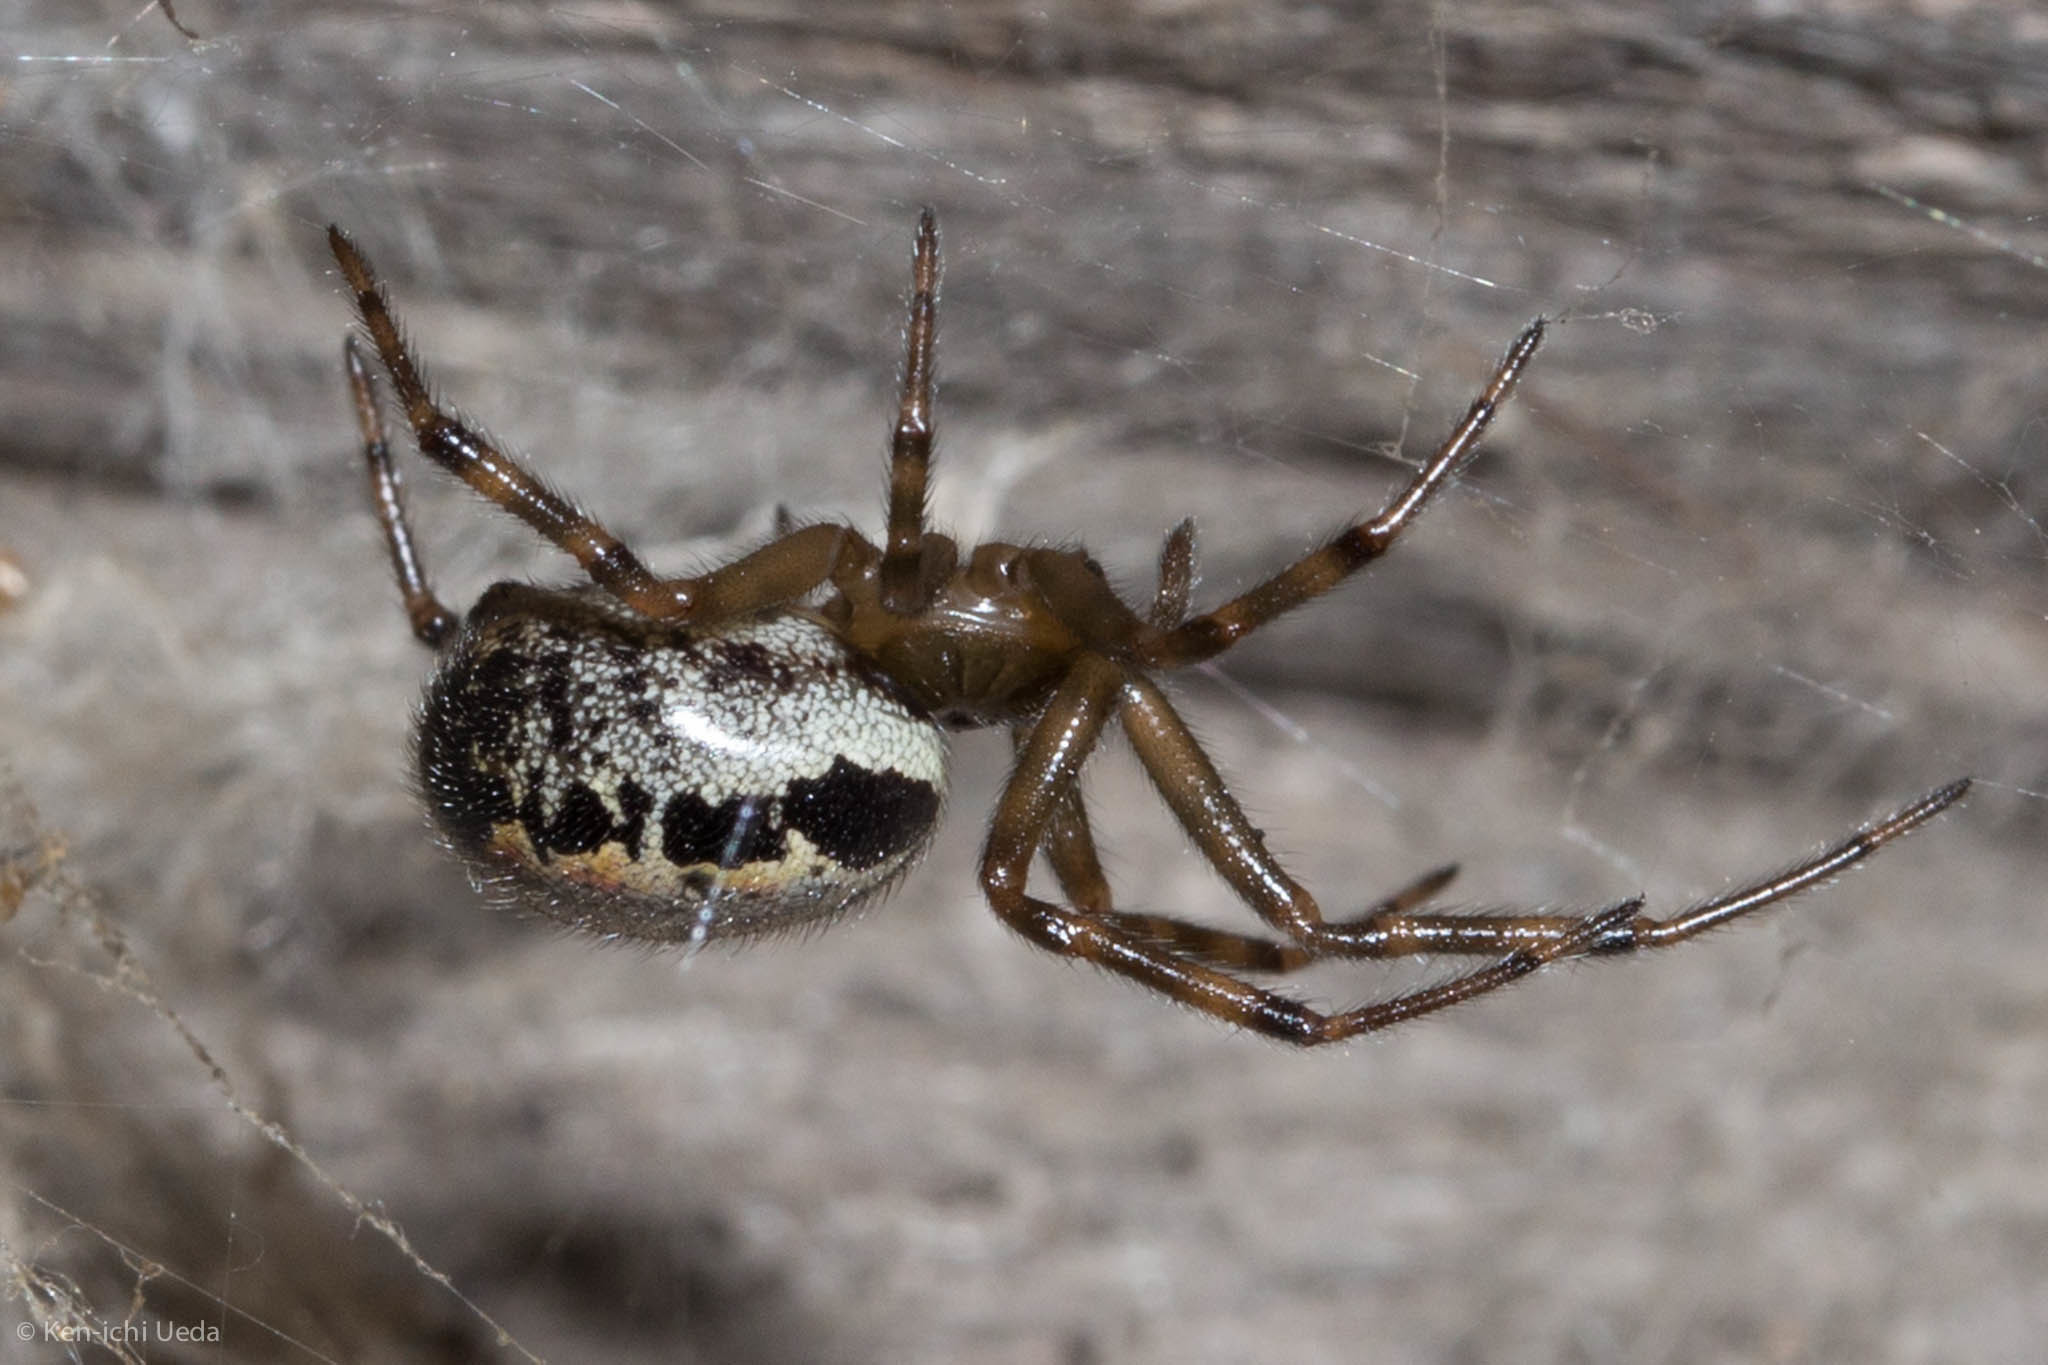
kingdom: Animalia
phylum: Arthropoda
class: Arachnida
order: Araneae
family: Theridiidae
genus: Steatoda
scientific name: Steatoda nobilis
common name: Cobweb weaver
